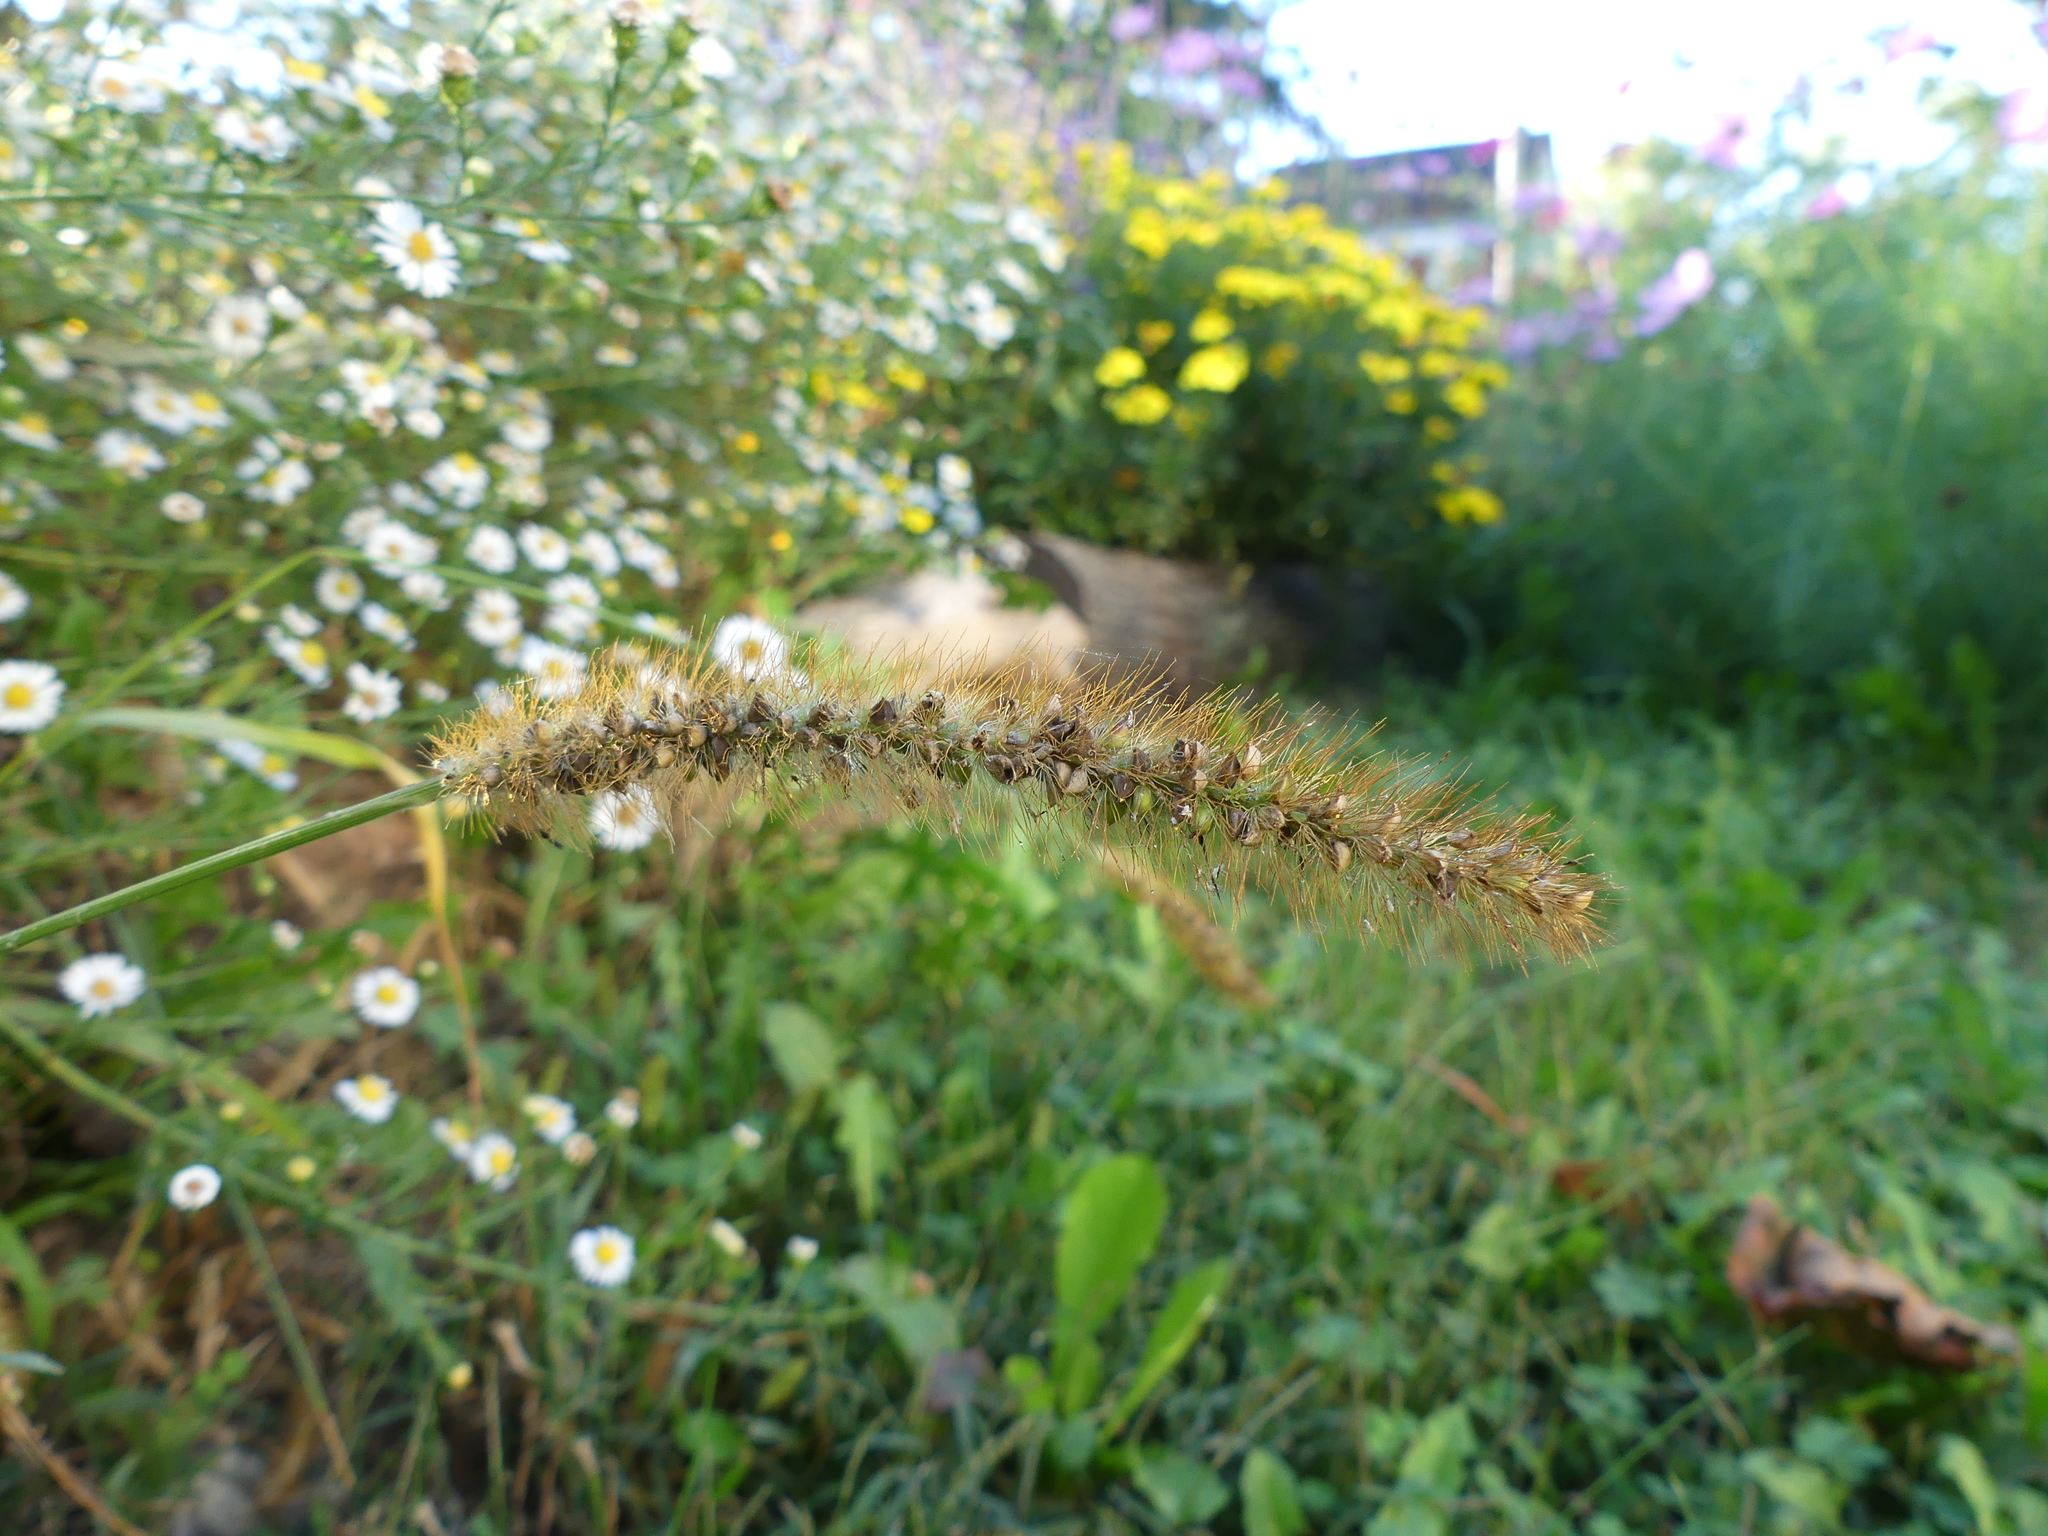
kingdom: Plantae
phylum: Tracheophyta
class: Liliopsida
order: Poales
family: Poaceae
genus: Setaria
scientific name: Setaria pumila
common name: Yellow bristle-grass
